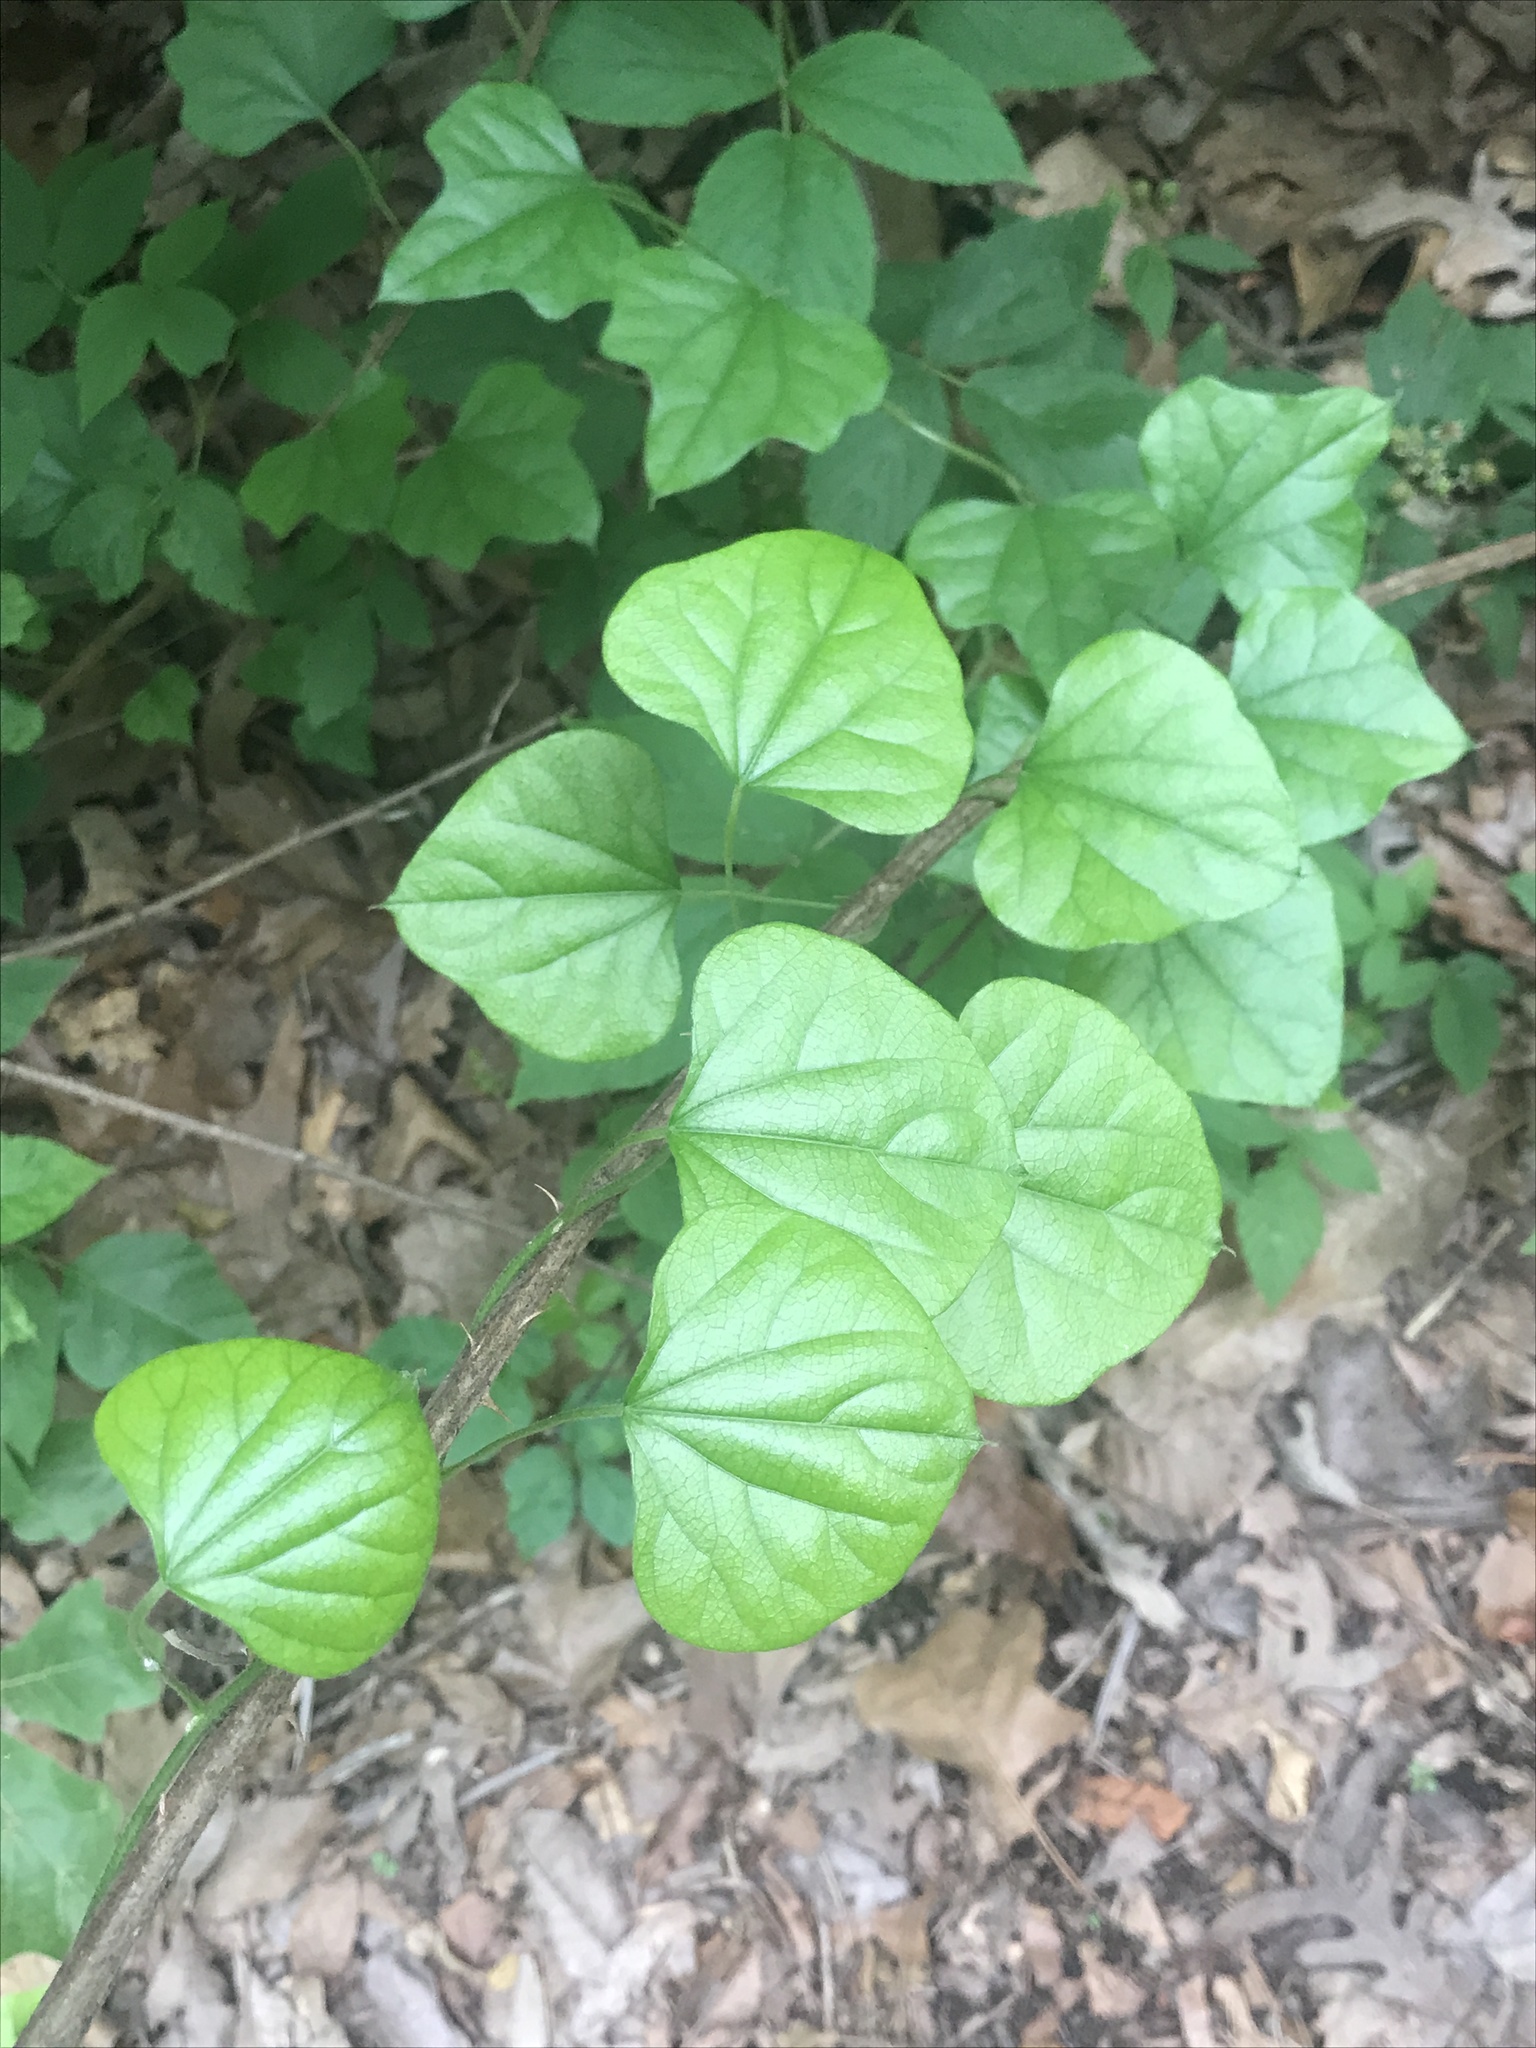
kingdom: Plantae
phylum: Tracheophyta
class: Magnoliopsida
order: Ranunculales
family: Menispermaceae
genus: Cocculus
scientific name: Cocculus carolinus
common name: Carolina moonseed
